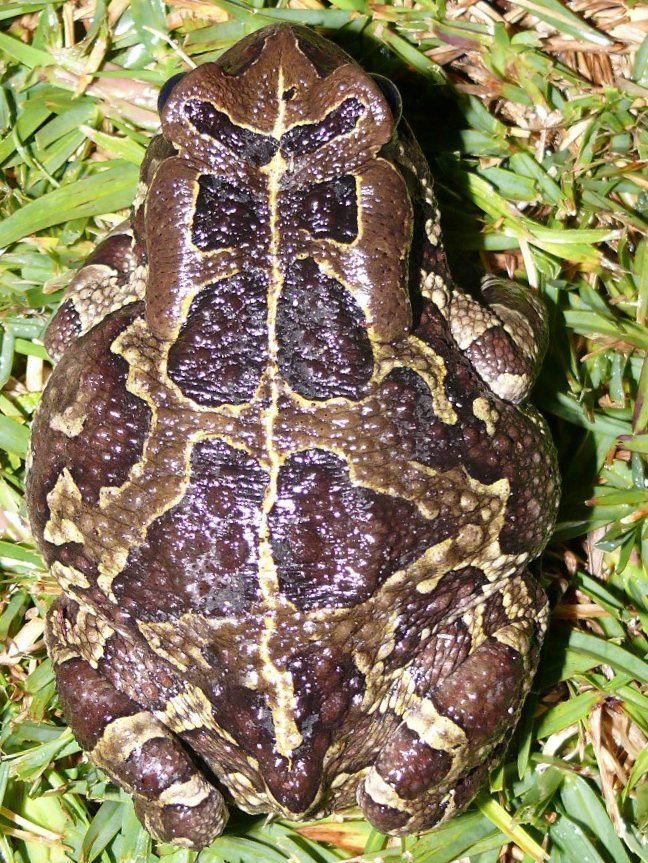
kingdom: Animalia
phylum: Chordata
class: Amphibia
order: Anura
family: Bufonidae
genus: Sclerophrys
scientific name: Sclerophrys pantherina
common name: Panther toad
